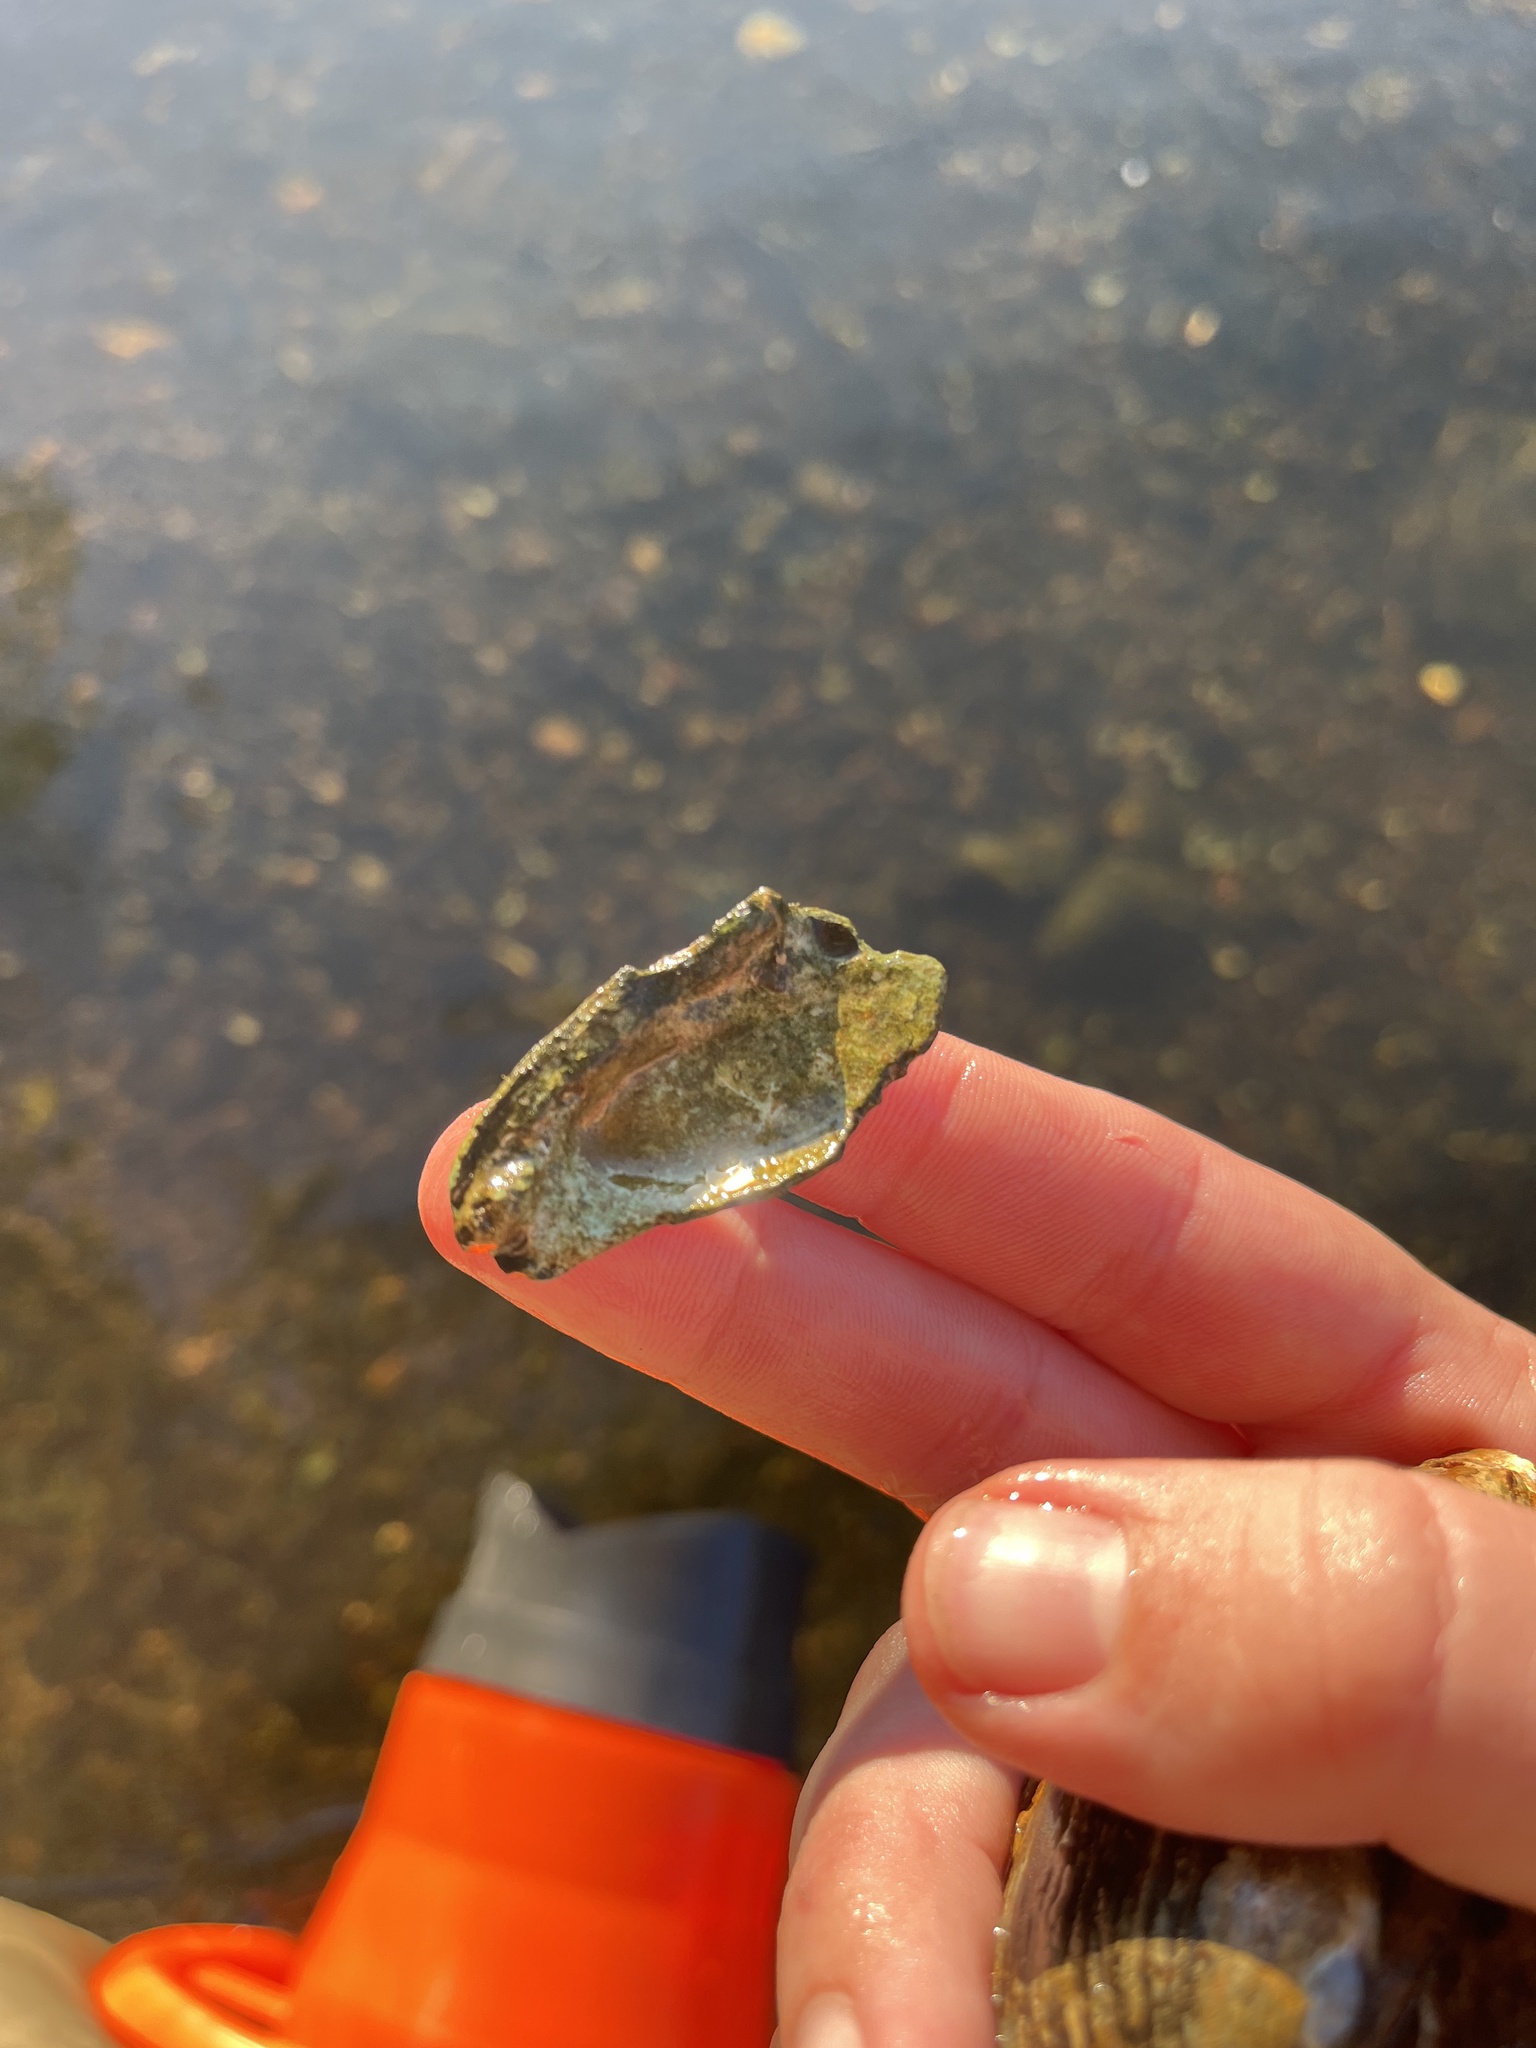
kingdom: Animalia
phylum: Mollusca
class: Bivalvia
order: Unionida
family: Unionidae
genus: Eurynia
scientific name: Eurynia dilatata
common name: Spike
